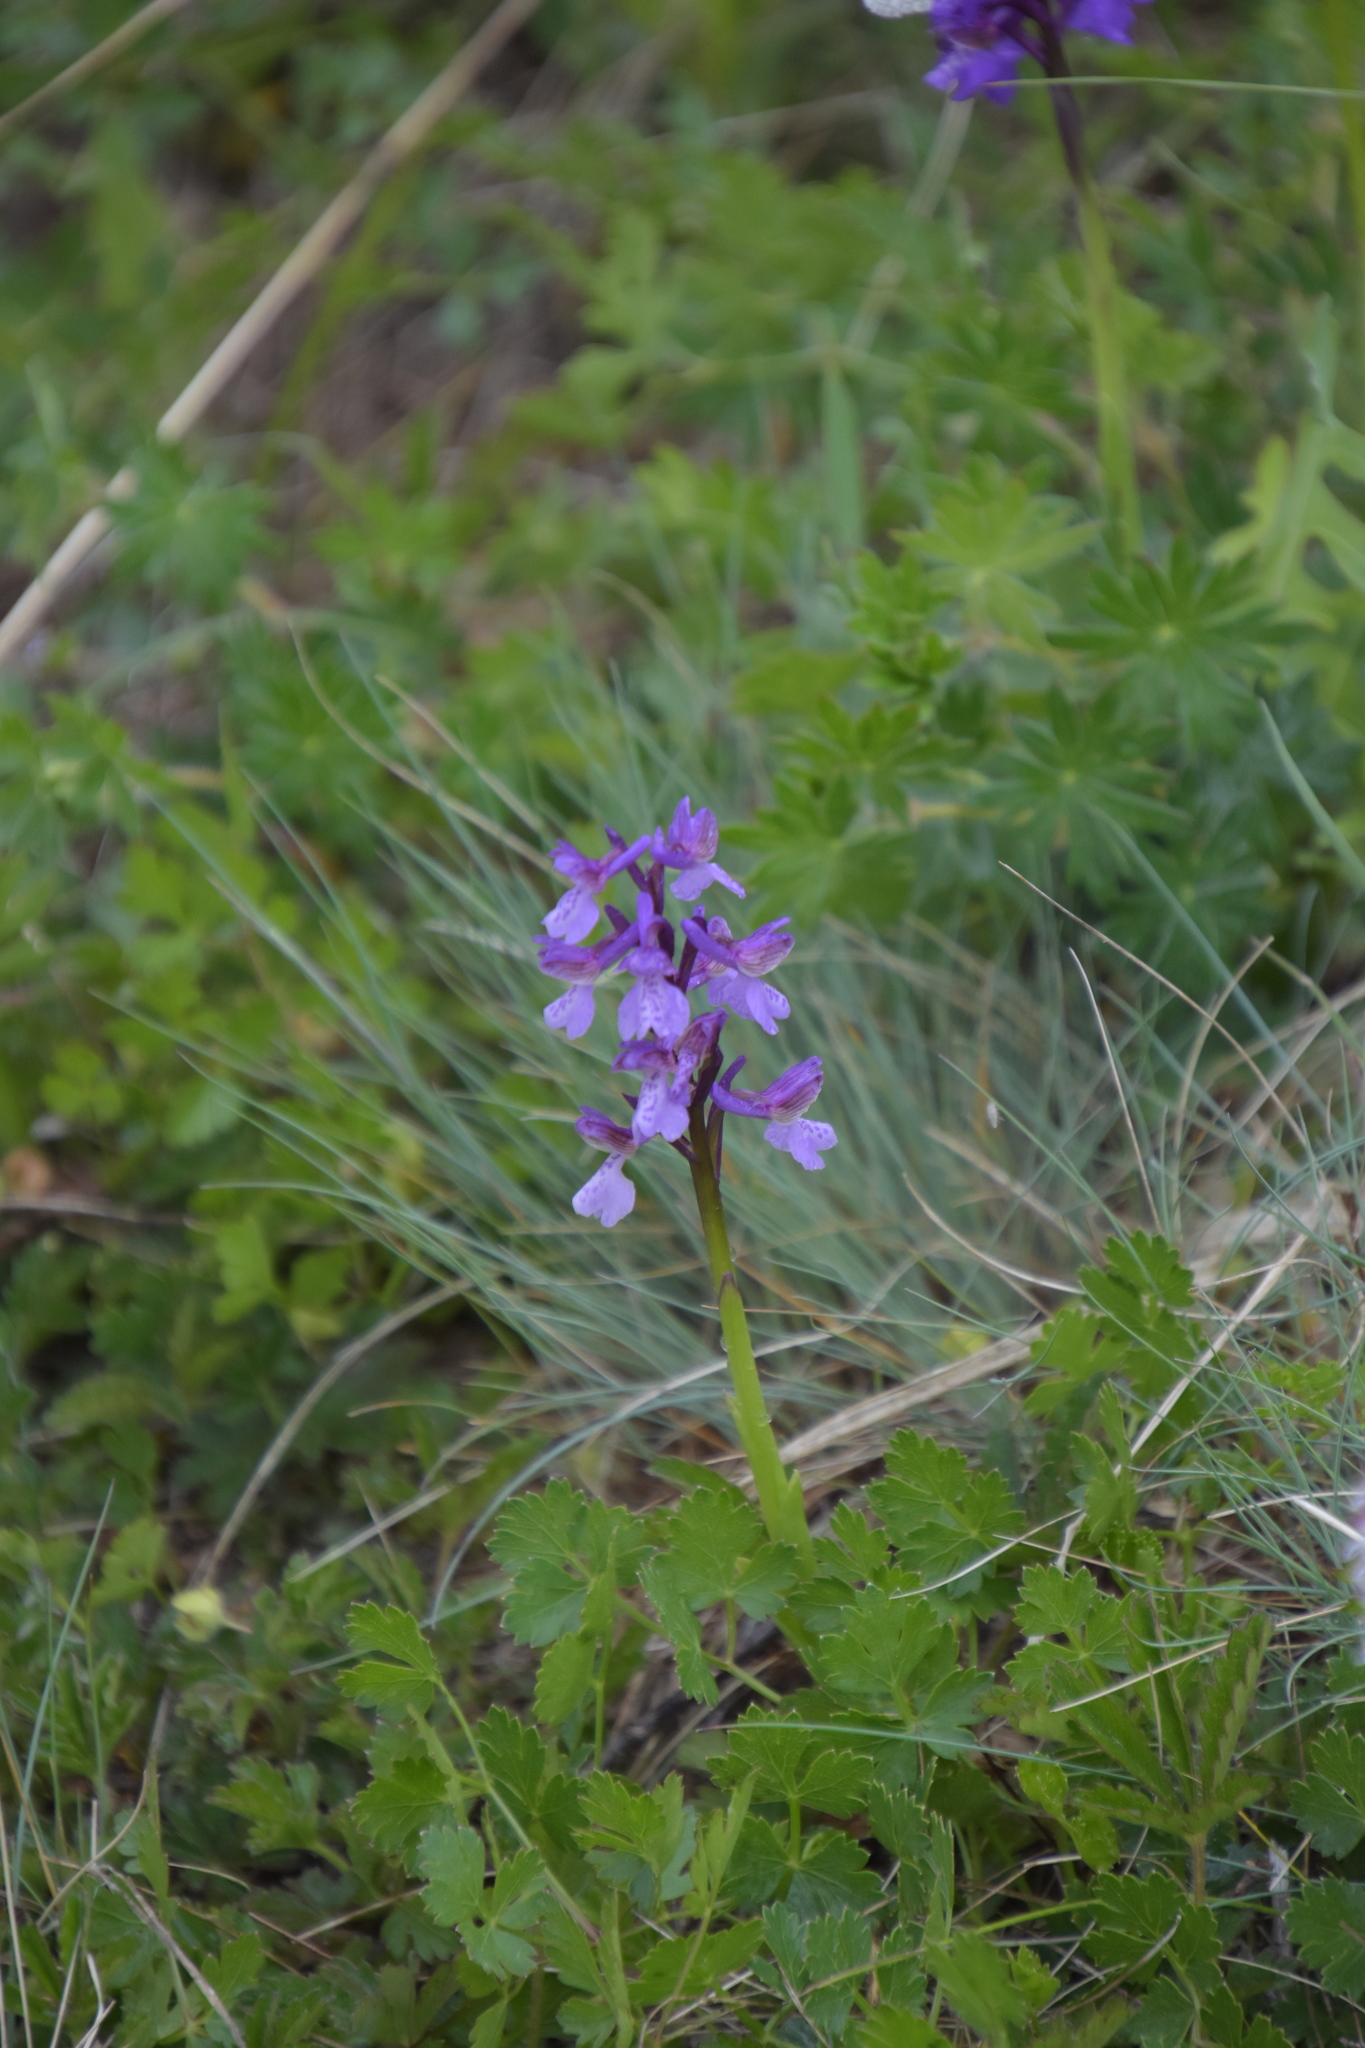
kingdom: Plantae
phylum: Tracheophyta
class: Liliopsida
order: Asparagales
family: Orchidaceae
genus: Anacamptis
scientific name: Anacamptis morio
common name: Green-winged orchid
